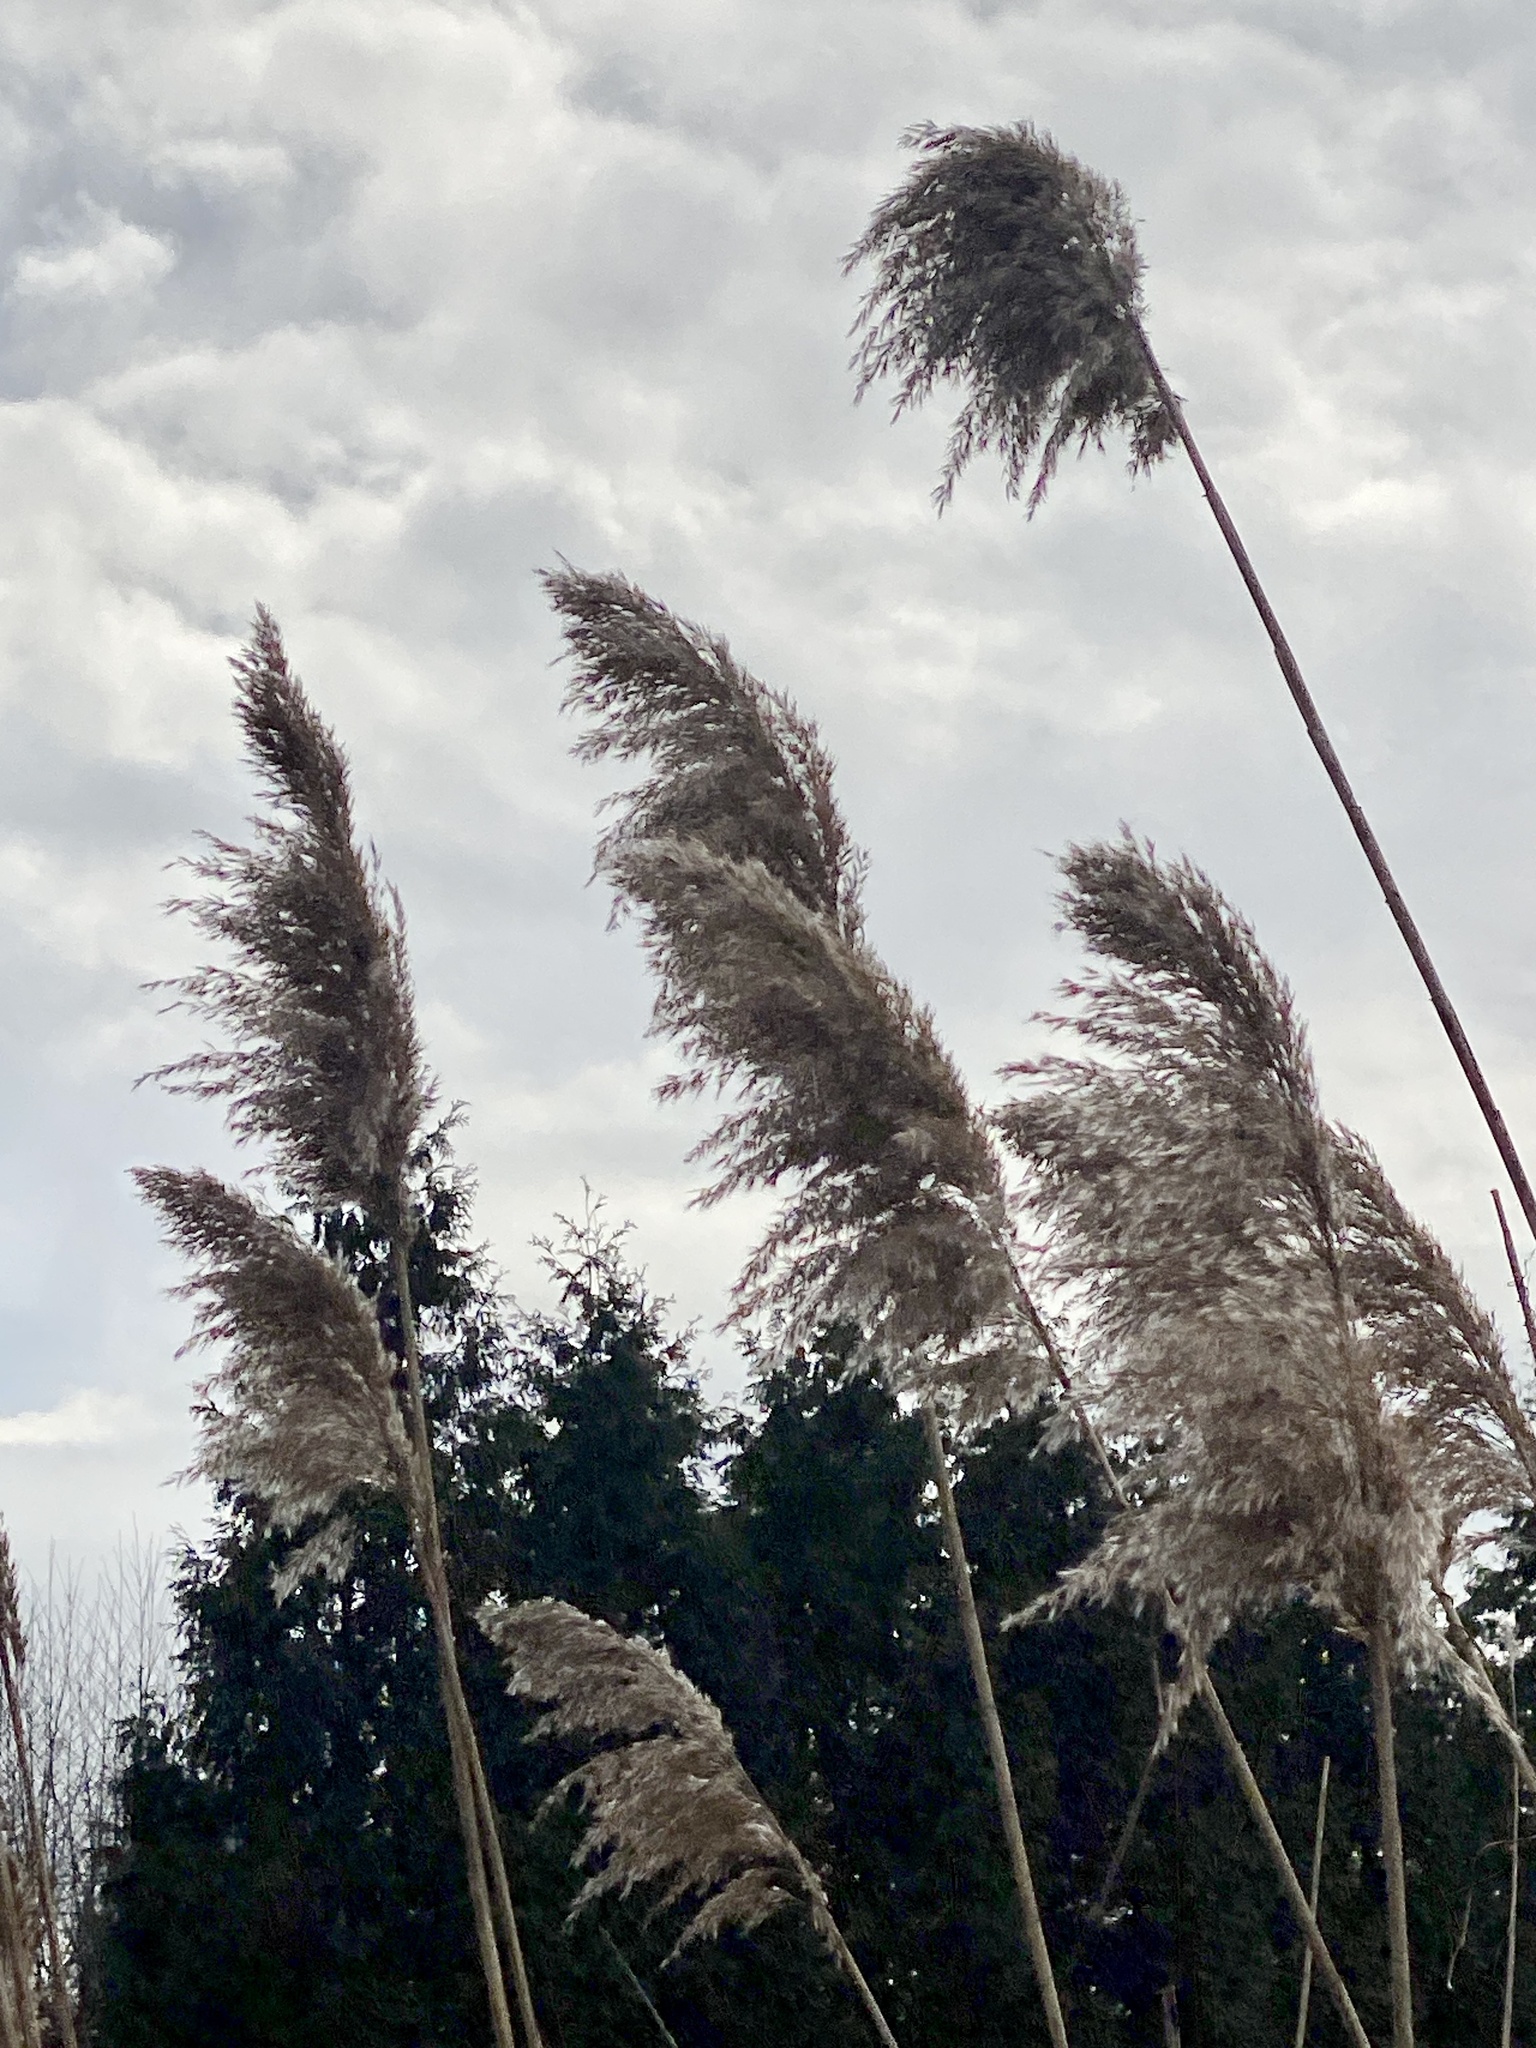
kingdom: Plantae
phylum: Tracheophyta
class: Liliopsida
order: Poales
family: Poaceae
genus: Phragmites
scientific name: Phragmites australis
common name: Common reed
